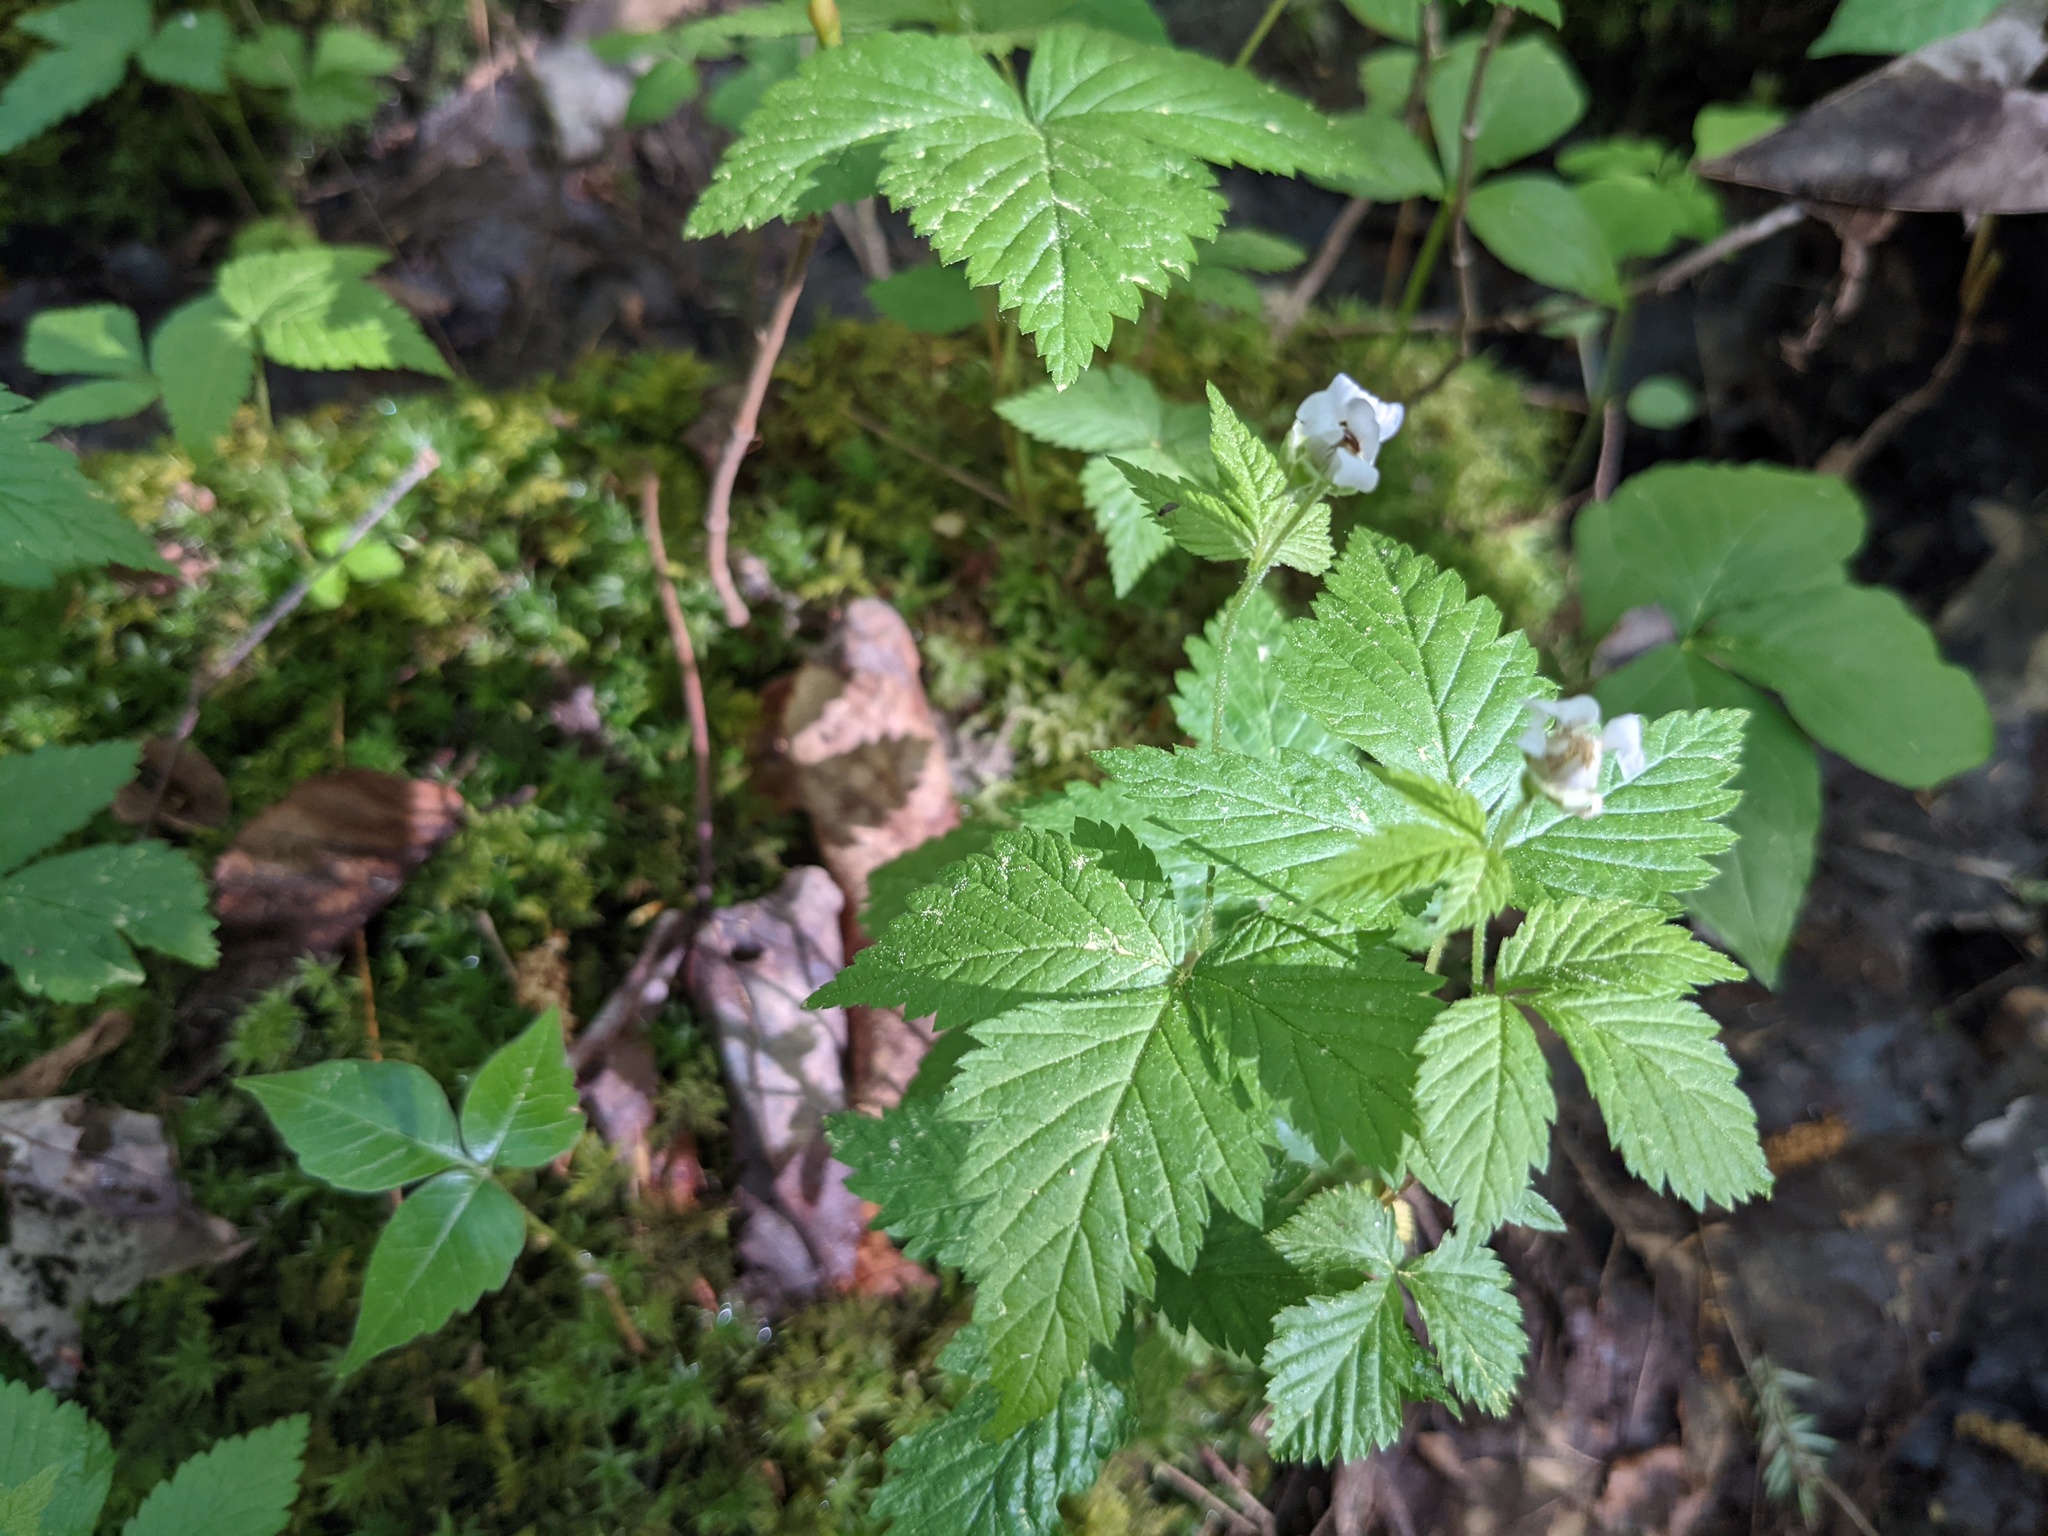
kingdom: Plantae
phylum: Tracheophyta
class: Magnoliopsida
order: Rosales
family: Rosaceae
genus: Rubus
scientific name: Rubus pubescens
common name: Dwarf raspberry
